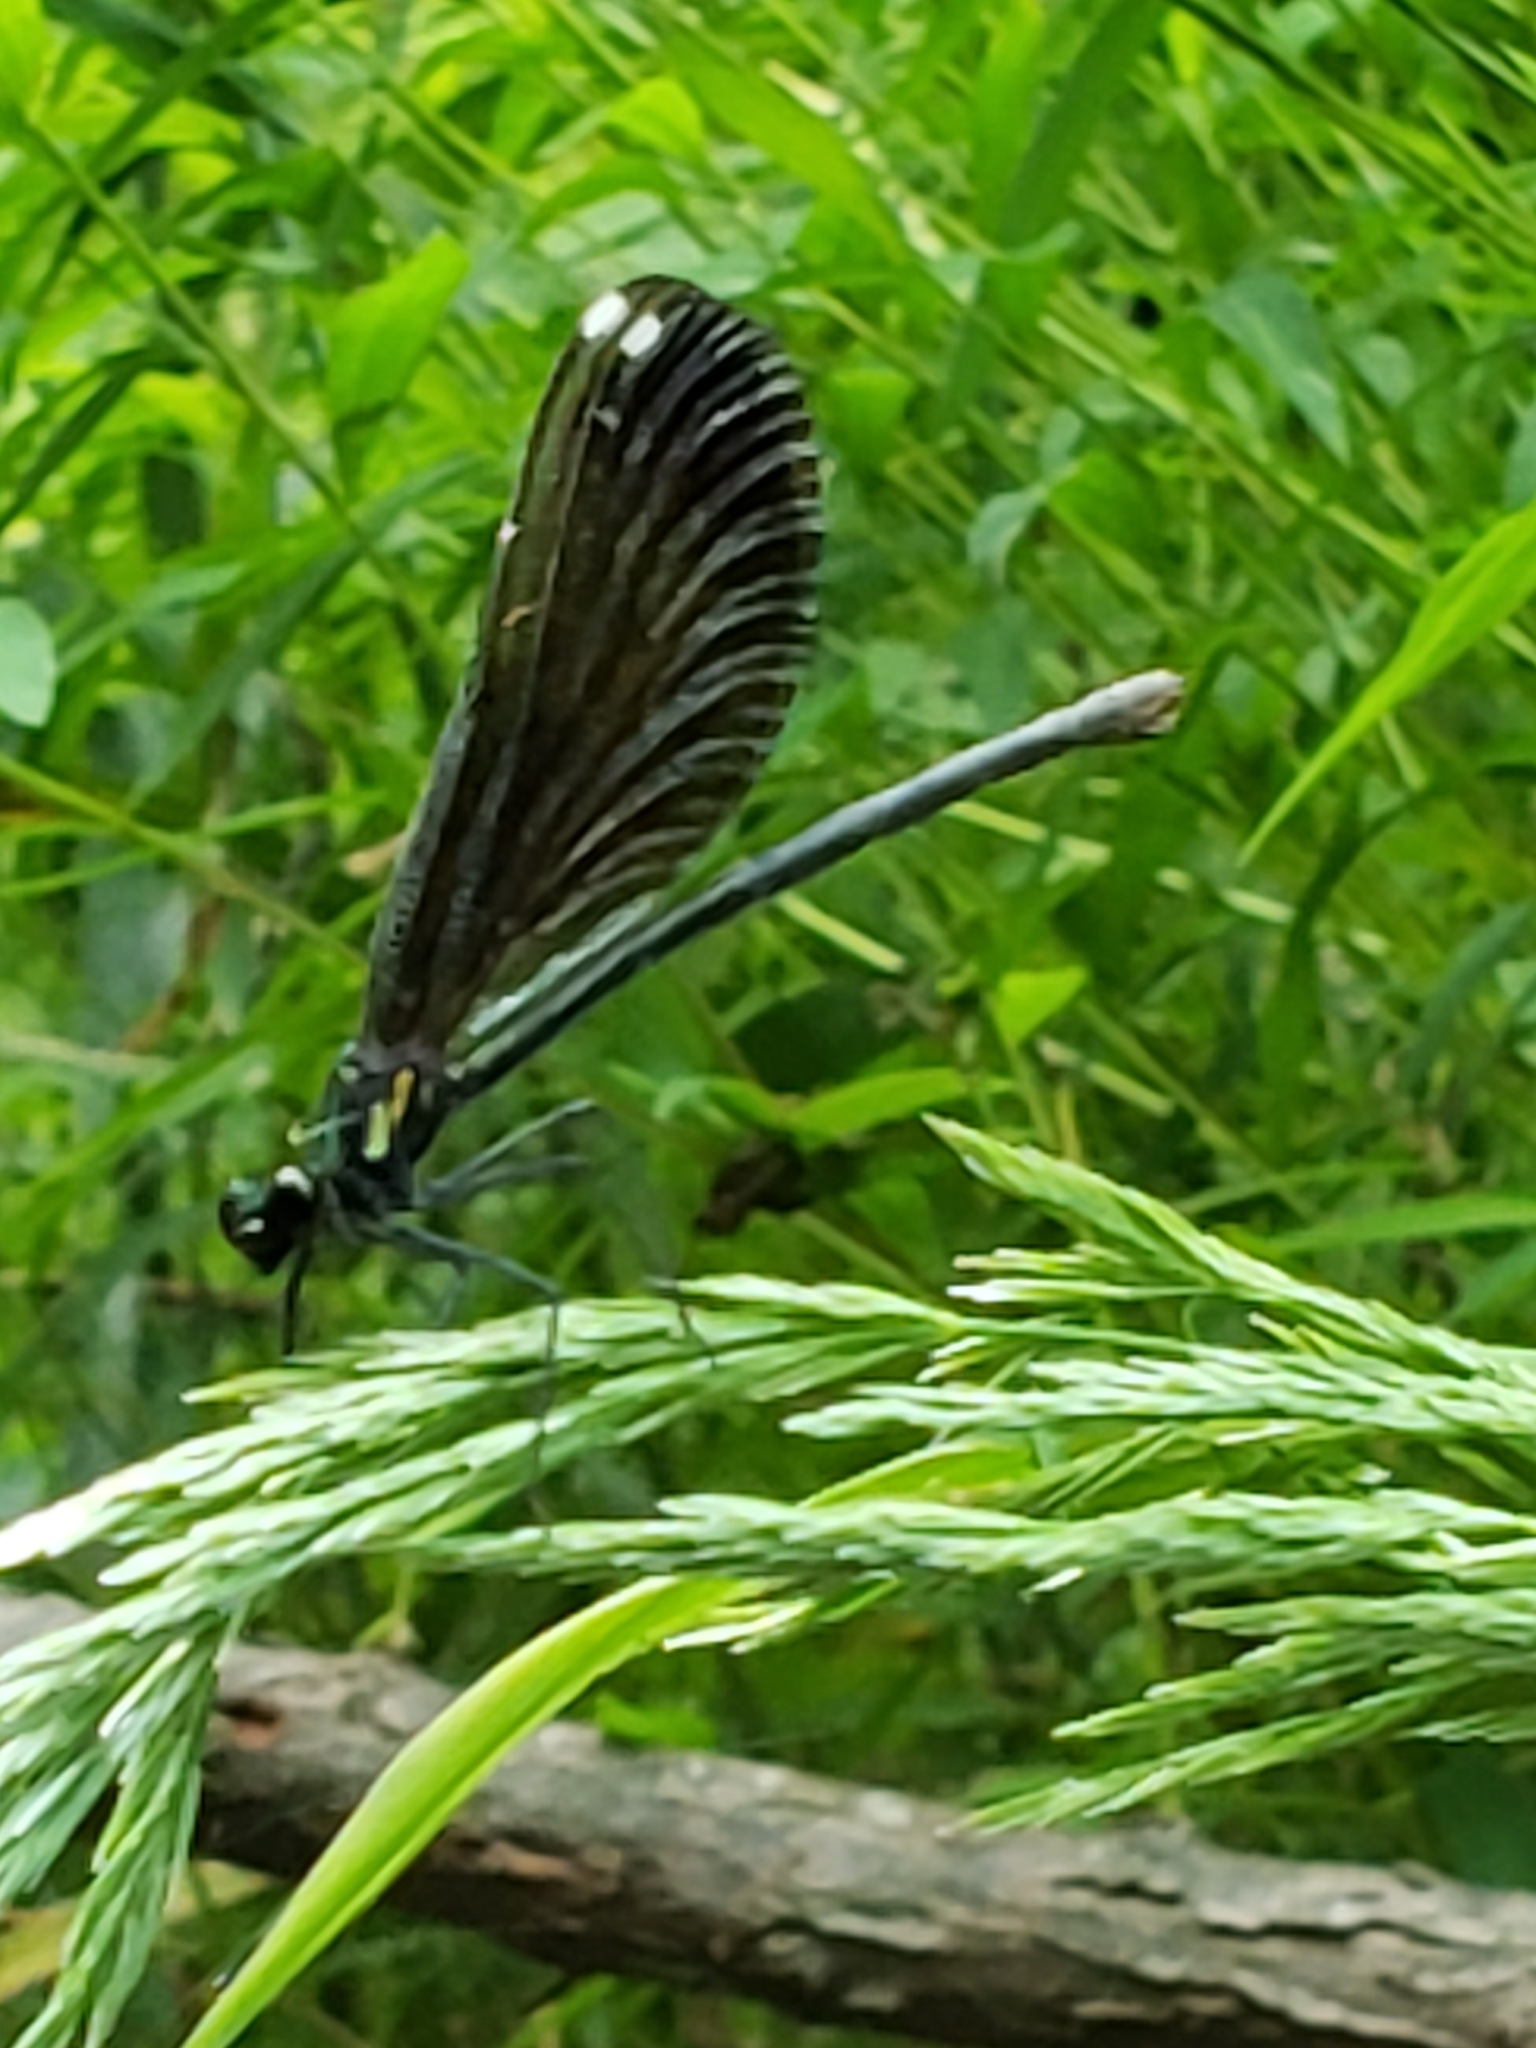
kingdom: Animalia
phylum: Arthropoda
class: Insecta
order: Odonata
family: Calopterygidae
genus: Calopteryx
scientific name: Calopteryx maculata
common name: Ebony jewelwing
